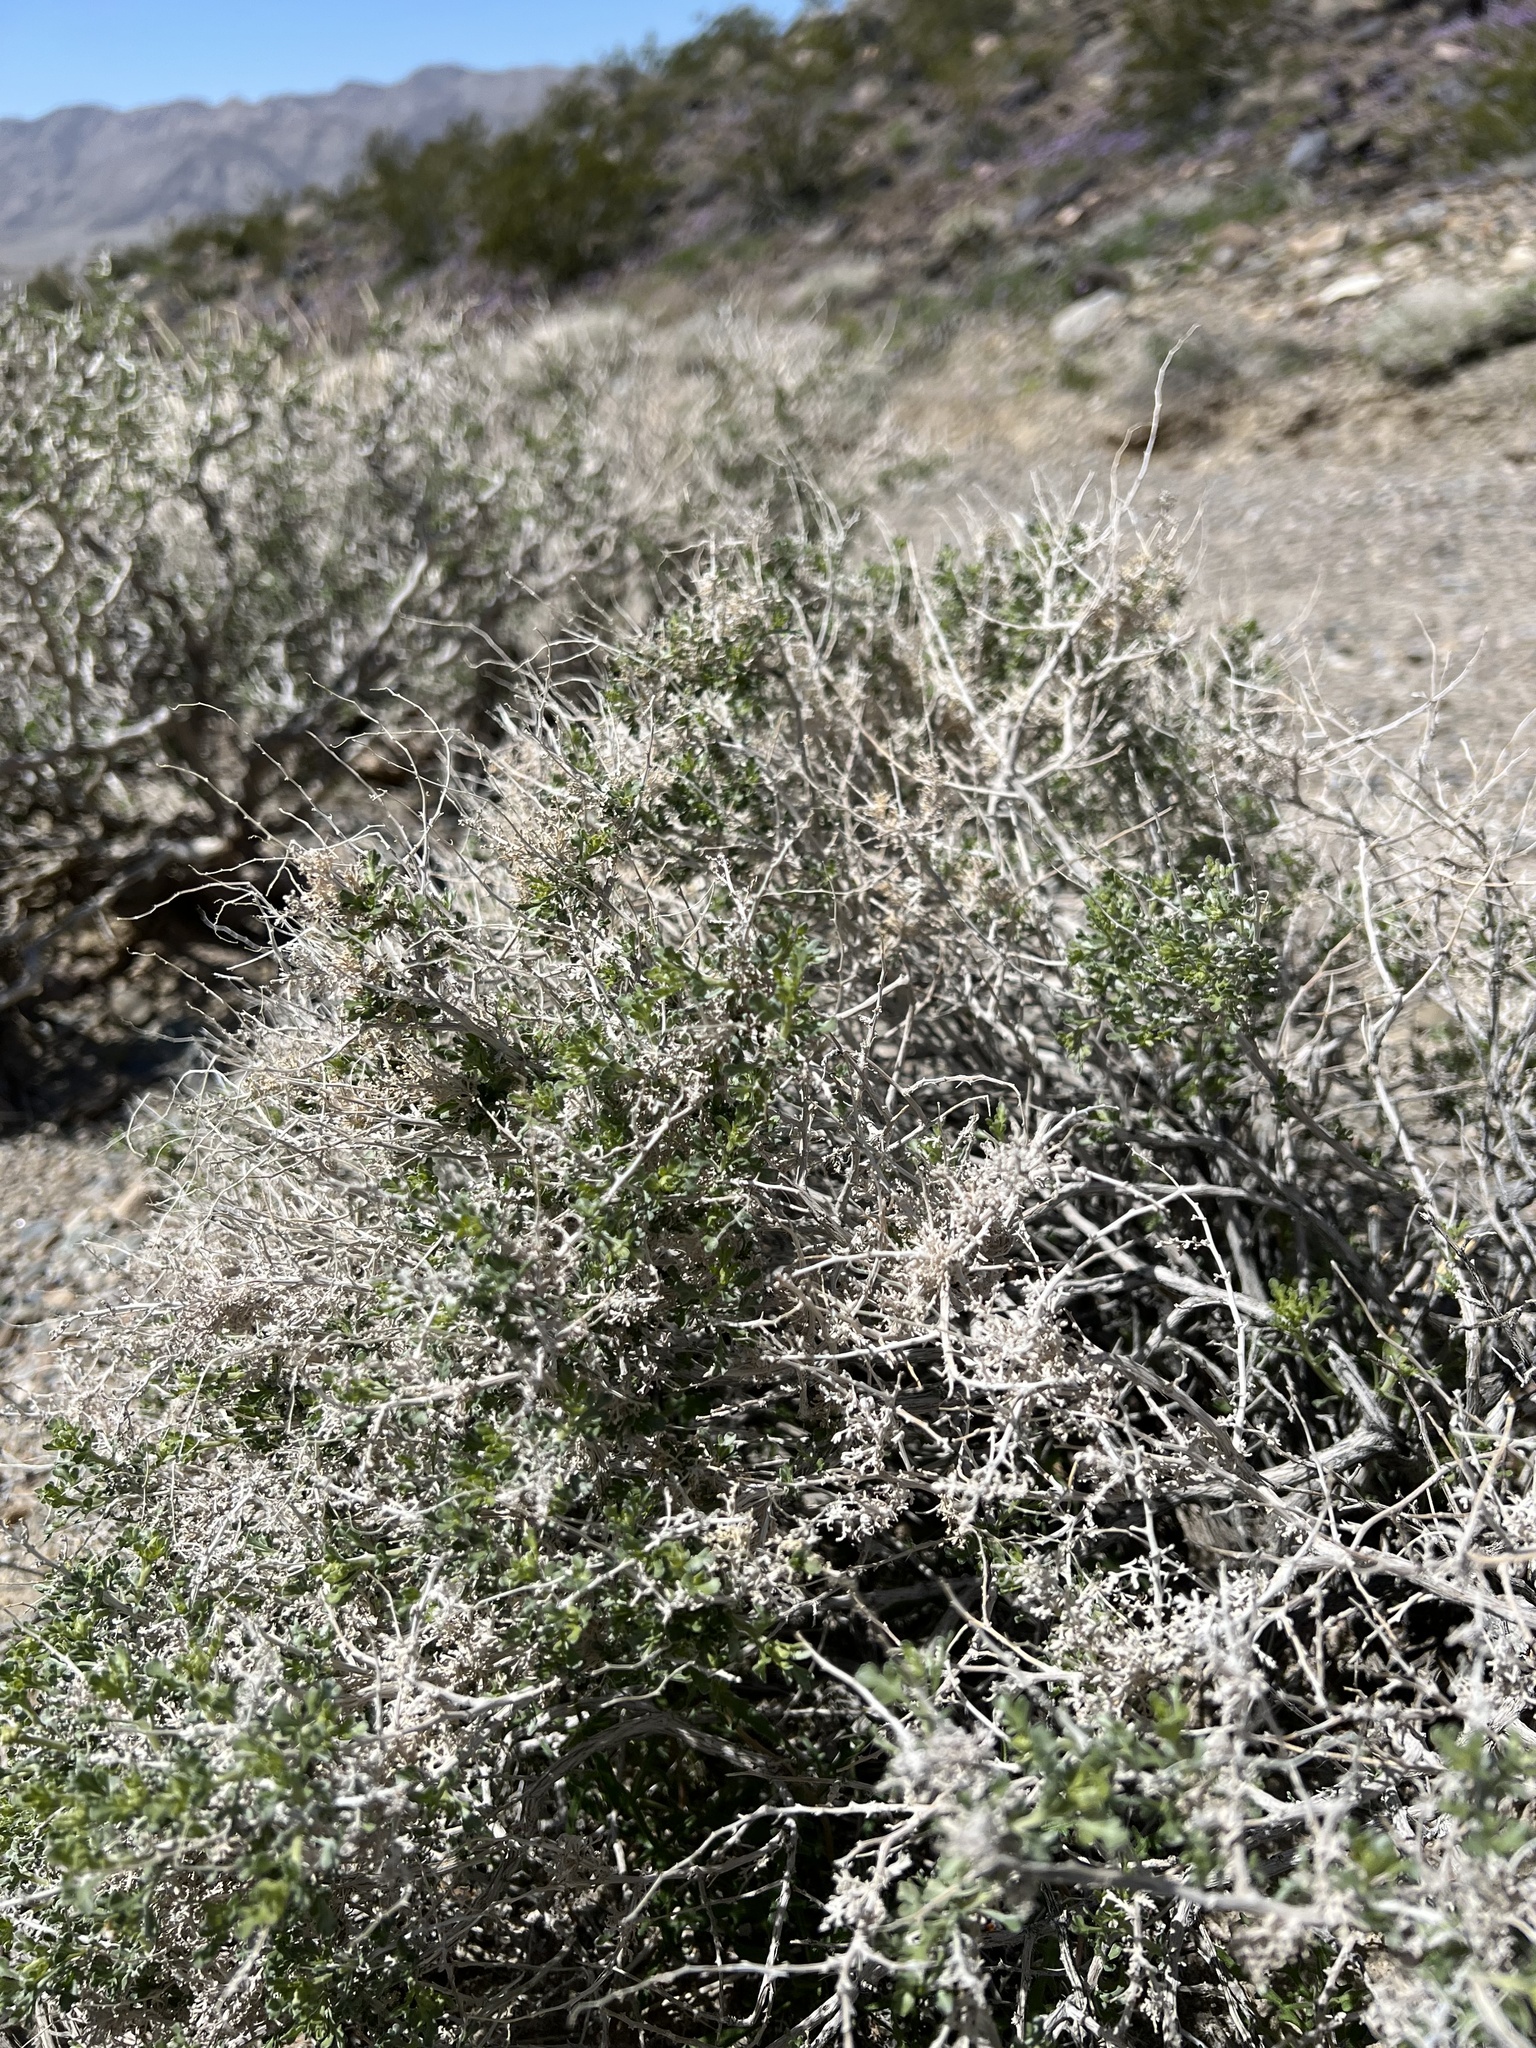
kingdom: Plantae
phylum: Tracheophyta
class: Magnoliopsida
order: Asterales
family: Asteraceae
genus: Ambrosia
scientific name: Ambrosia dumosa
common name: Bur-sage
